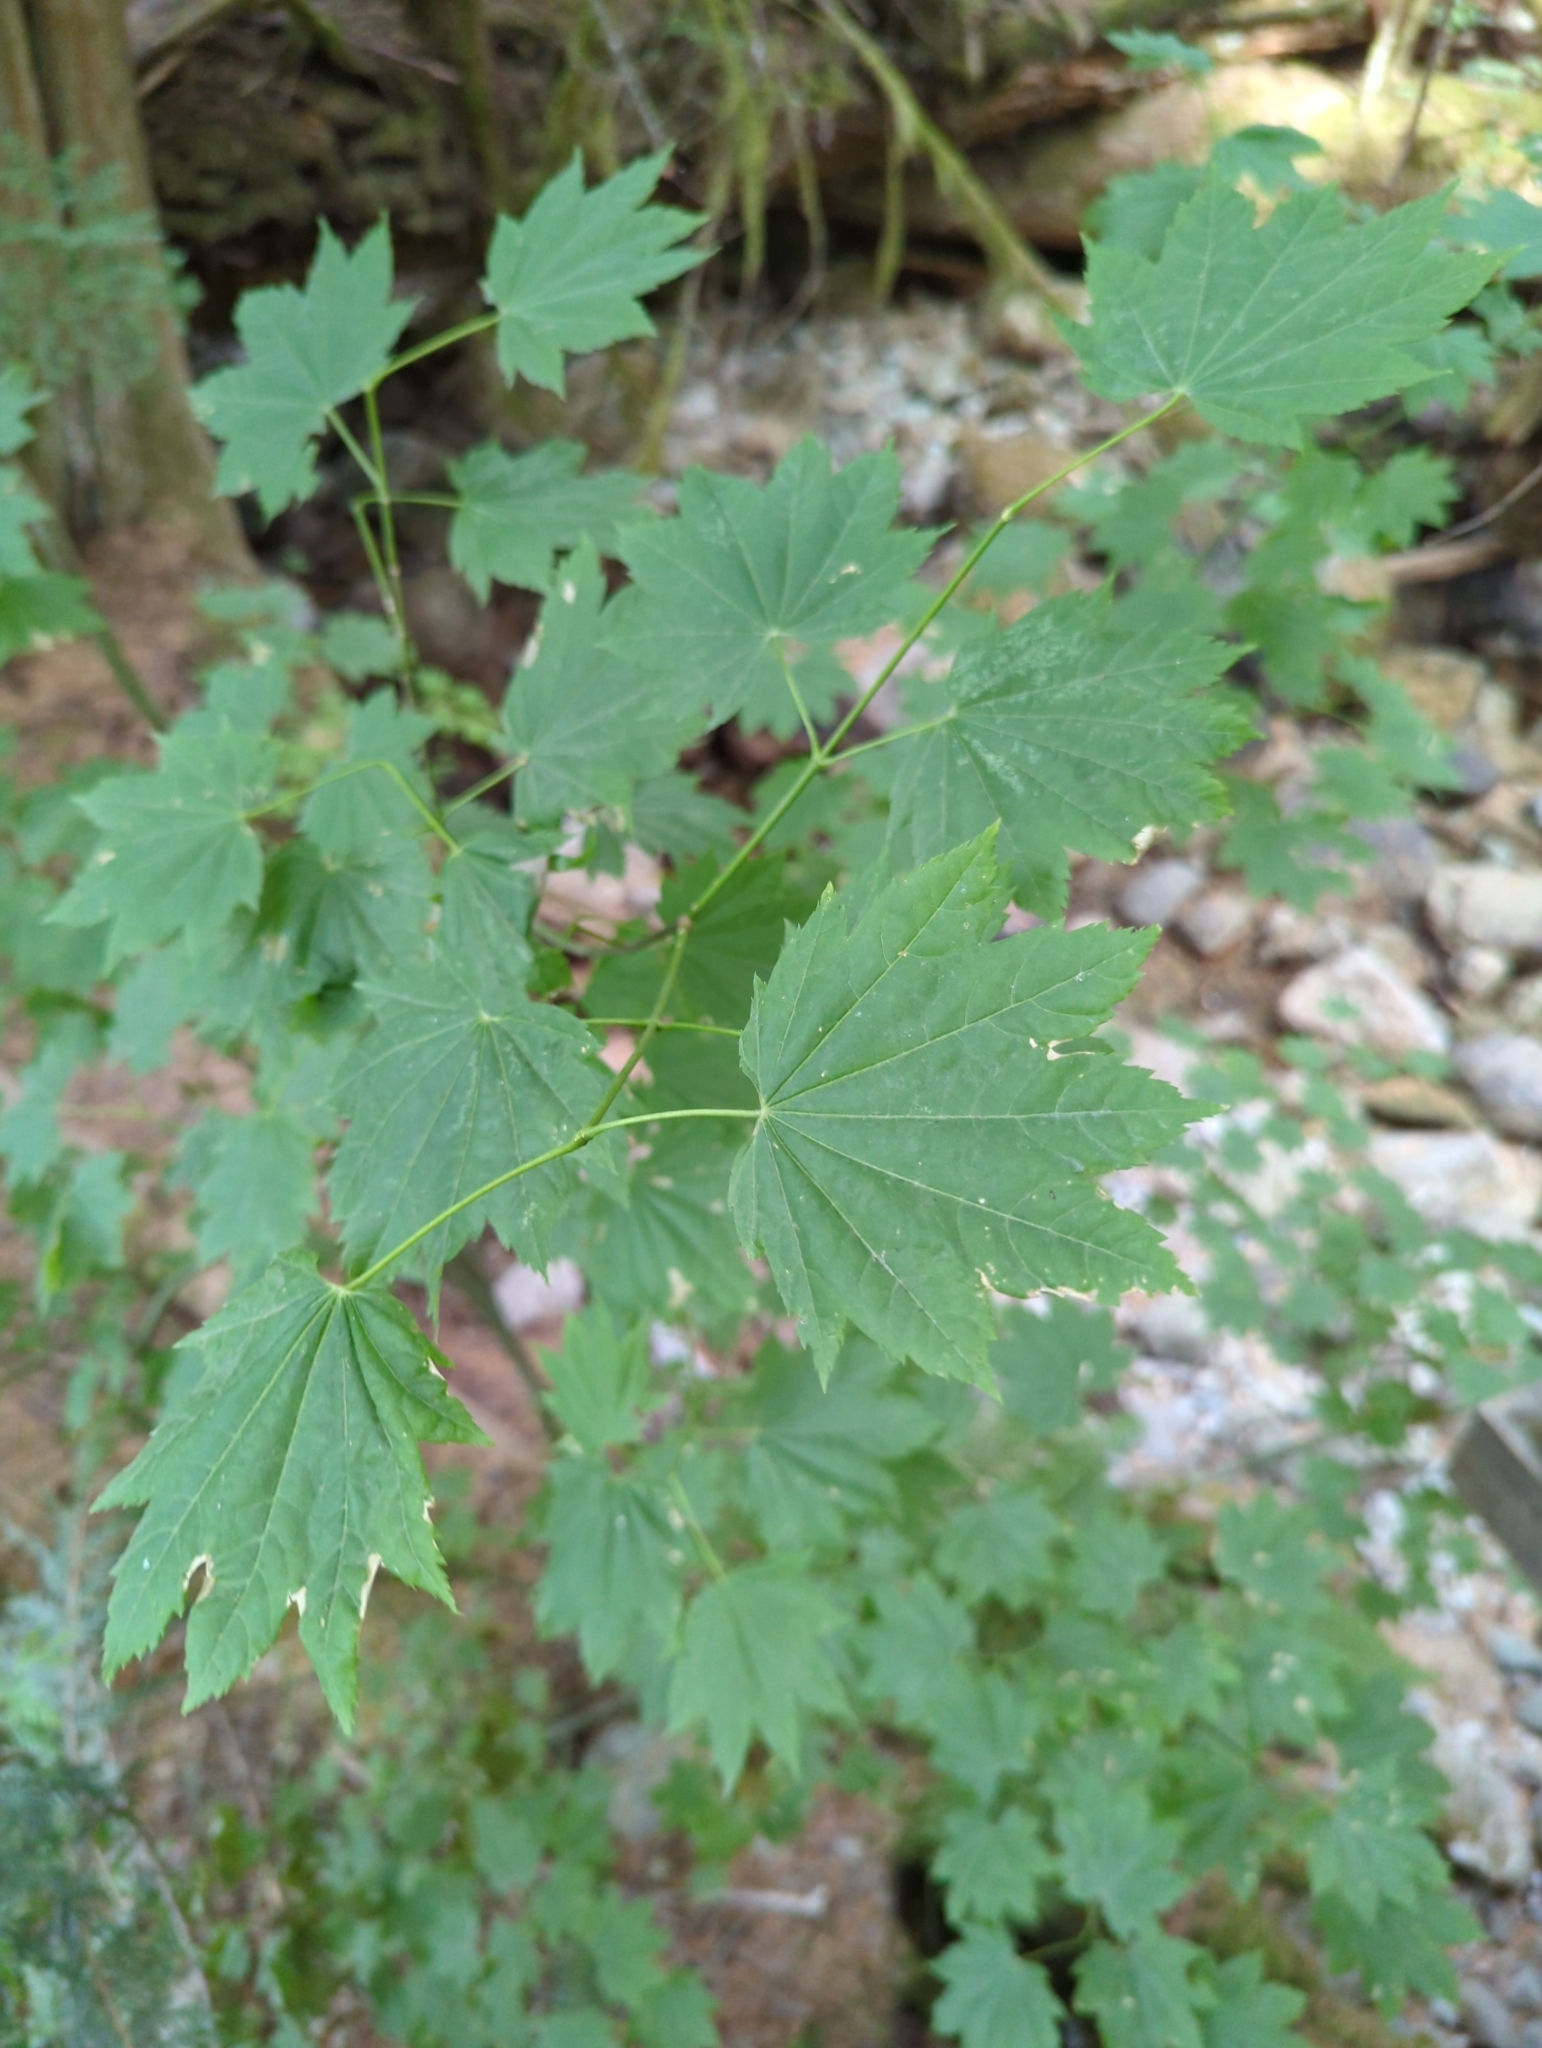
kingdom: Plantae
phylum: Tracheophyta
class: Magnoliopsida
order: Sapindales
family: Sapindaceae
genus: Acer
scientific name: Acer circinatum
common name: Vine maple
